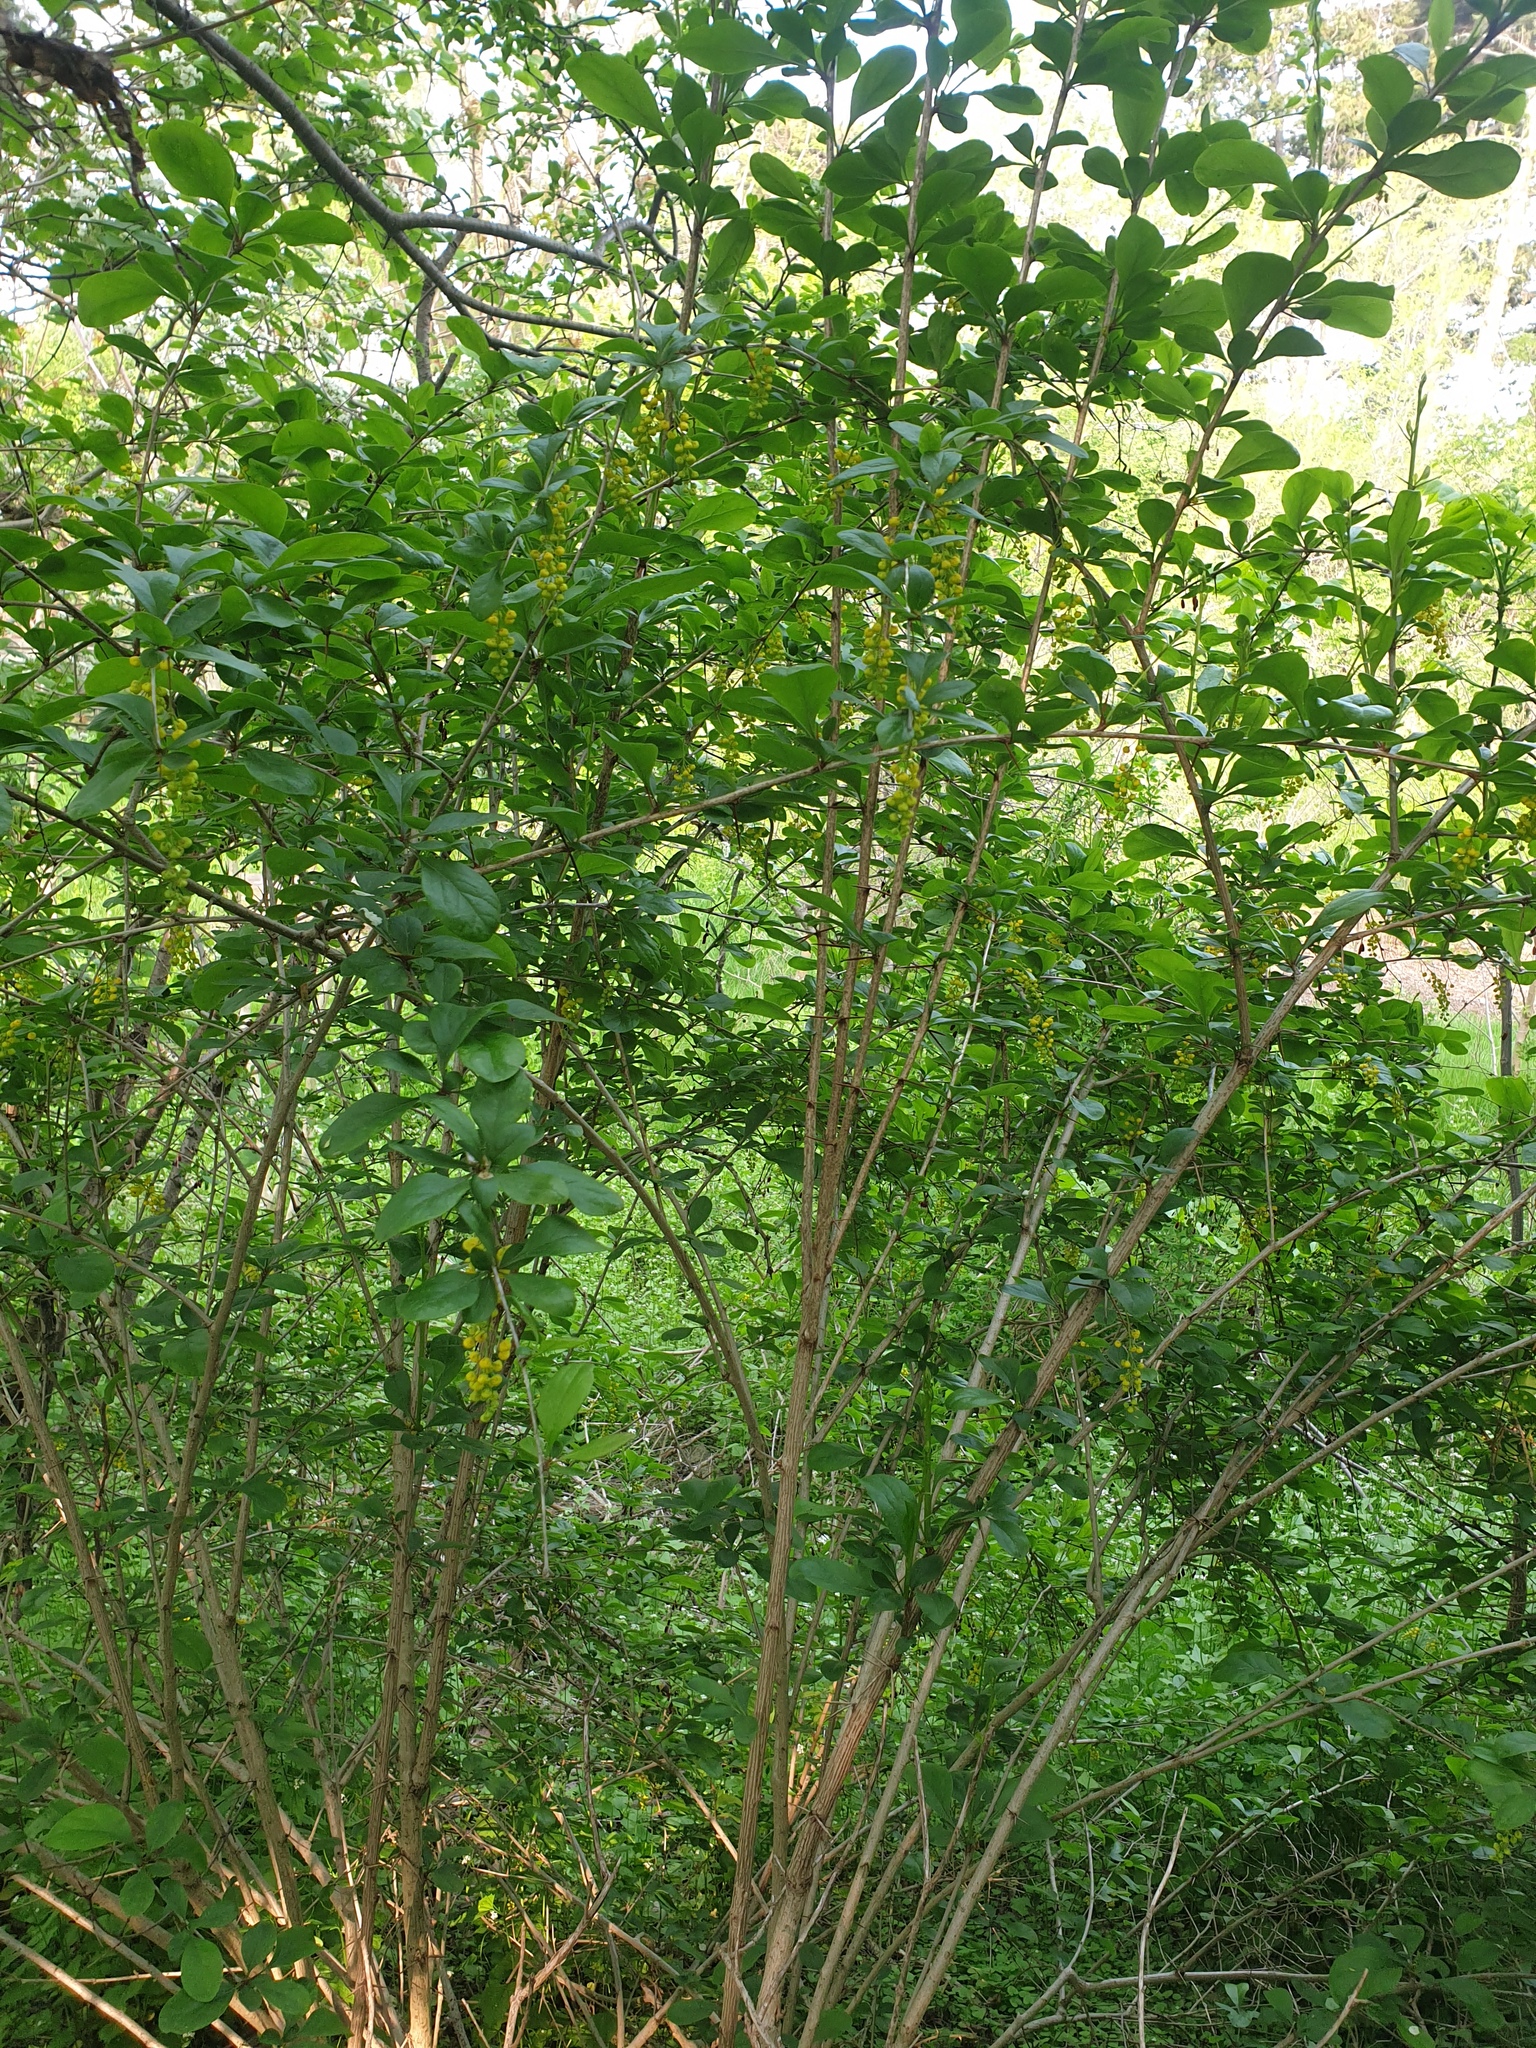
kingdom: Plantae
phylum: Tracheophyta
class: Magnoliopsida
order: Ranunculales
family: Berberidaceae
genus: Berberis
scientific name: Berberis vulgaris
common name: Barberry
